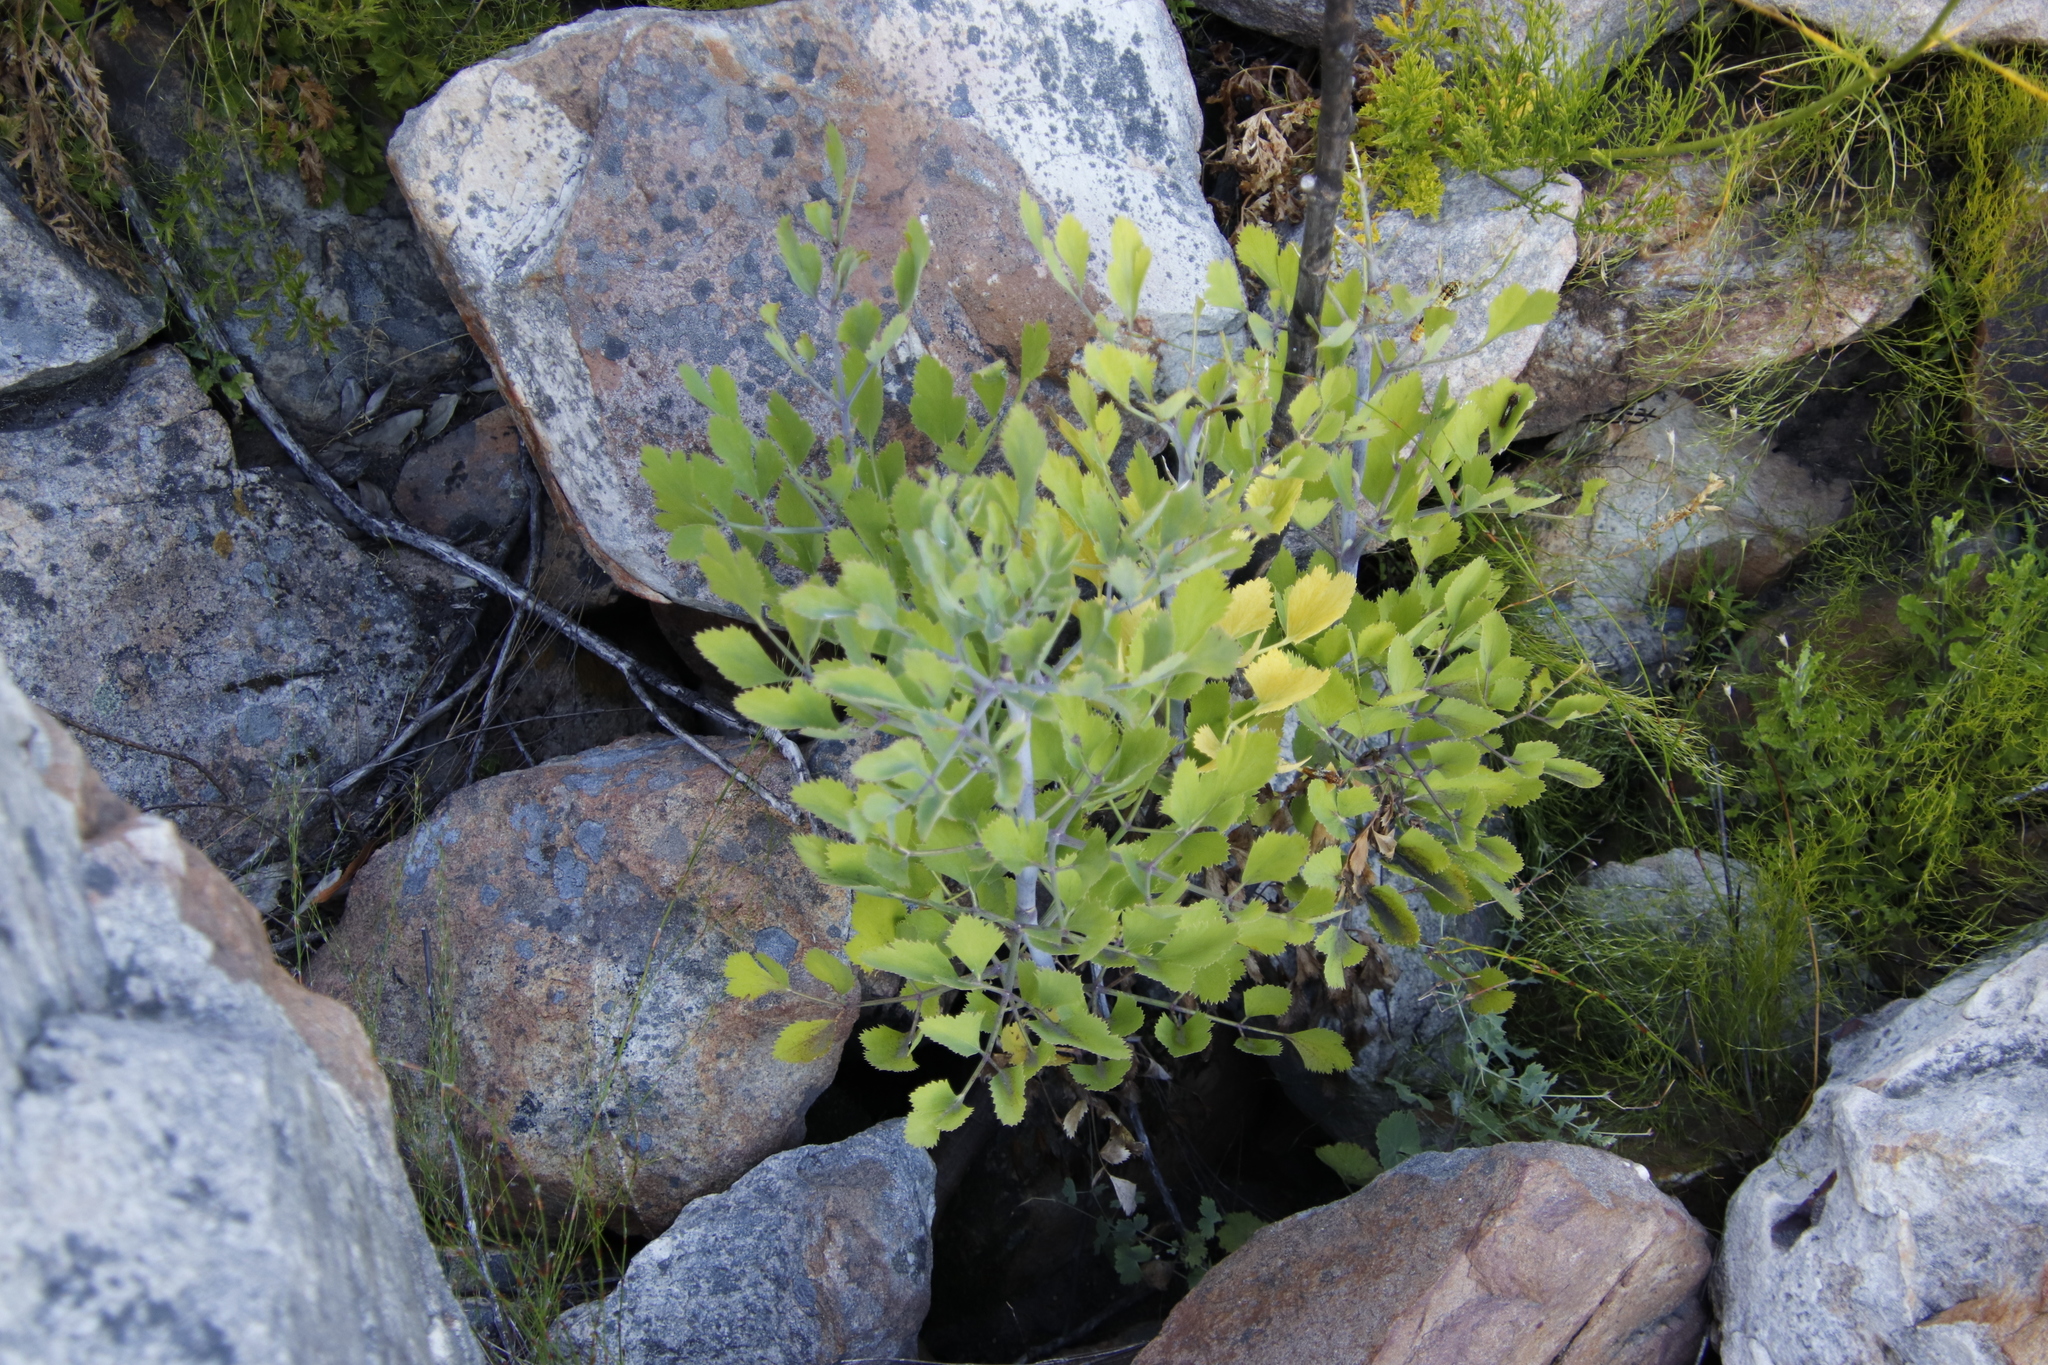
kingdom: Plantae
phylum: Tracheophyta
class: Magnoliopsida
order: Apiales
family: Apiaceae
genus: Notobubon
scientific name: Notobubon galbanum
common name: Blisterbush
